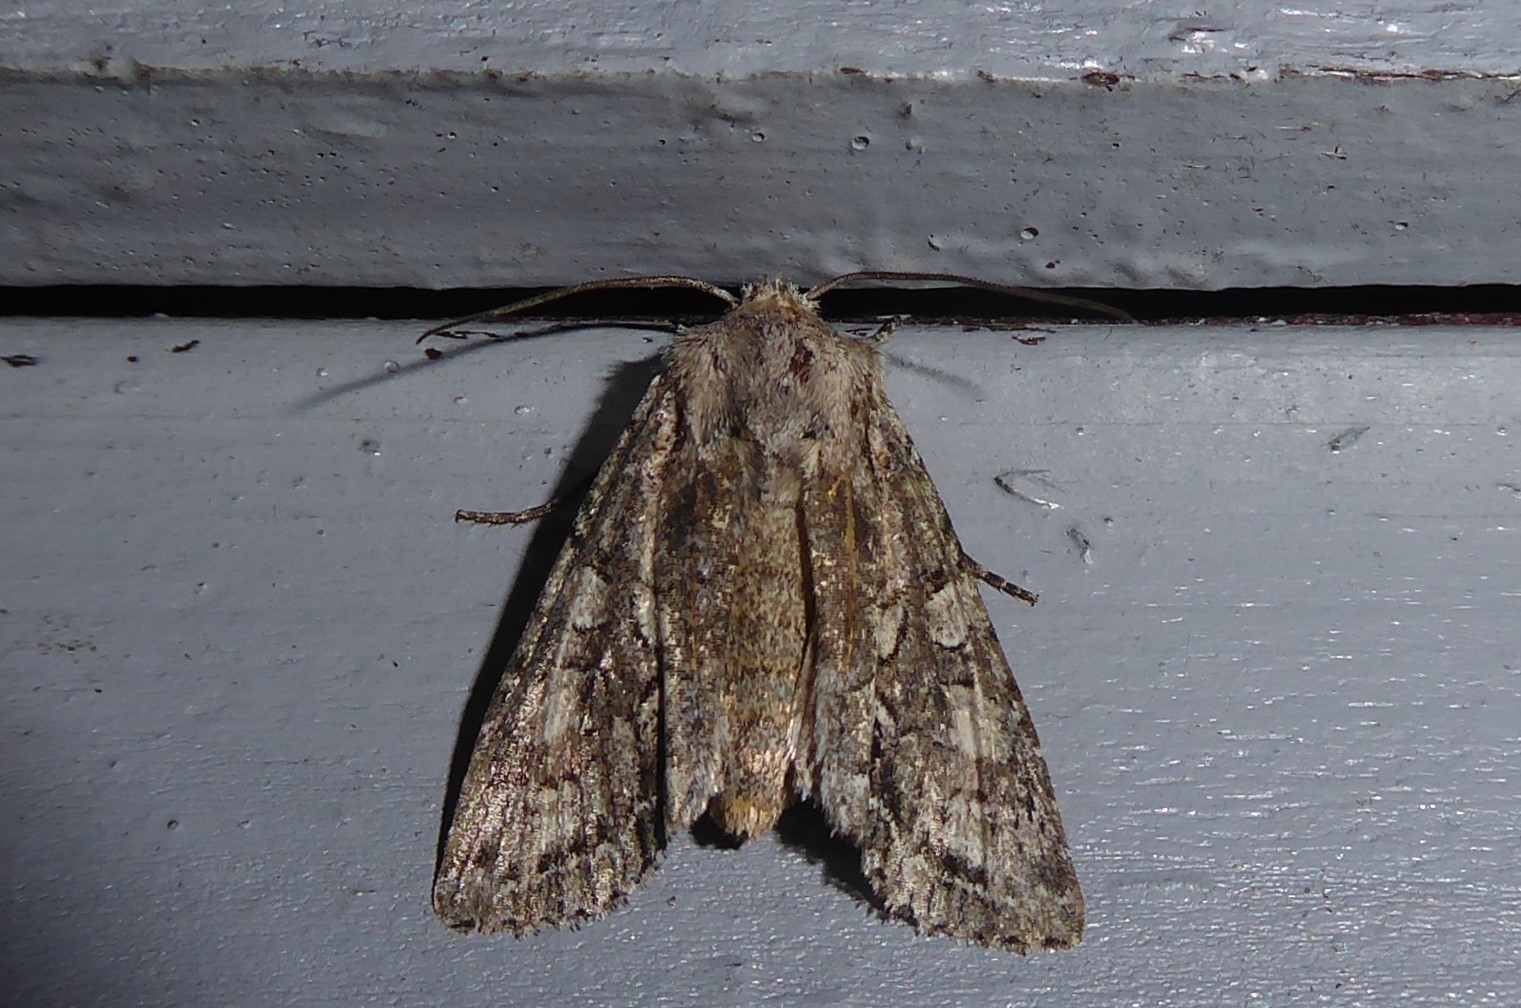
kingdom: Animalia
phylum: Arthropoda
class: Insecta
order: Lepidoptera
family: Noctuidae
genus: Ichneutica
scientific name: Ichneutica mutans
